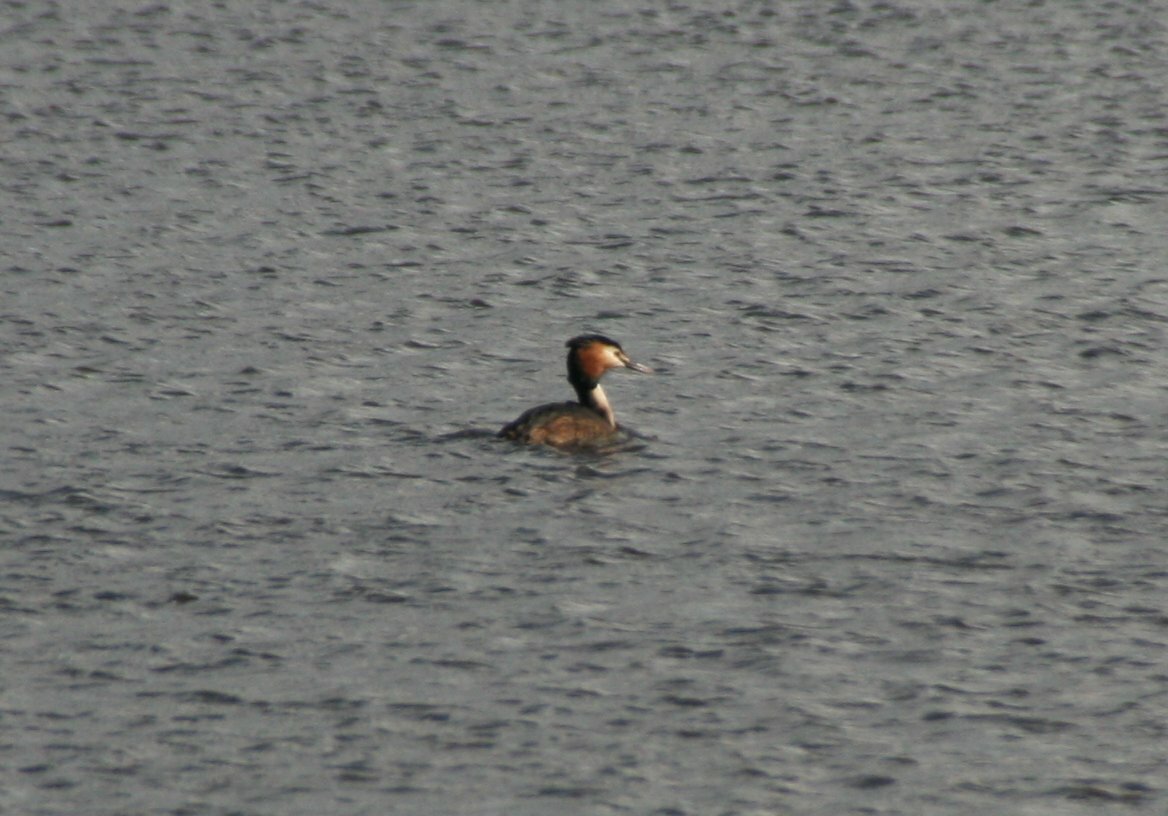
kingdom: Animalia
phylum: Chordata
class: Aves
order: Podicipediformes
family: Podicipedidae
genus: Podiceps
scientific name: Podiceps cristatus
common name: Great crested grebe
